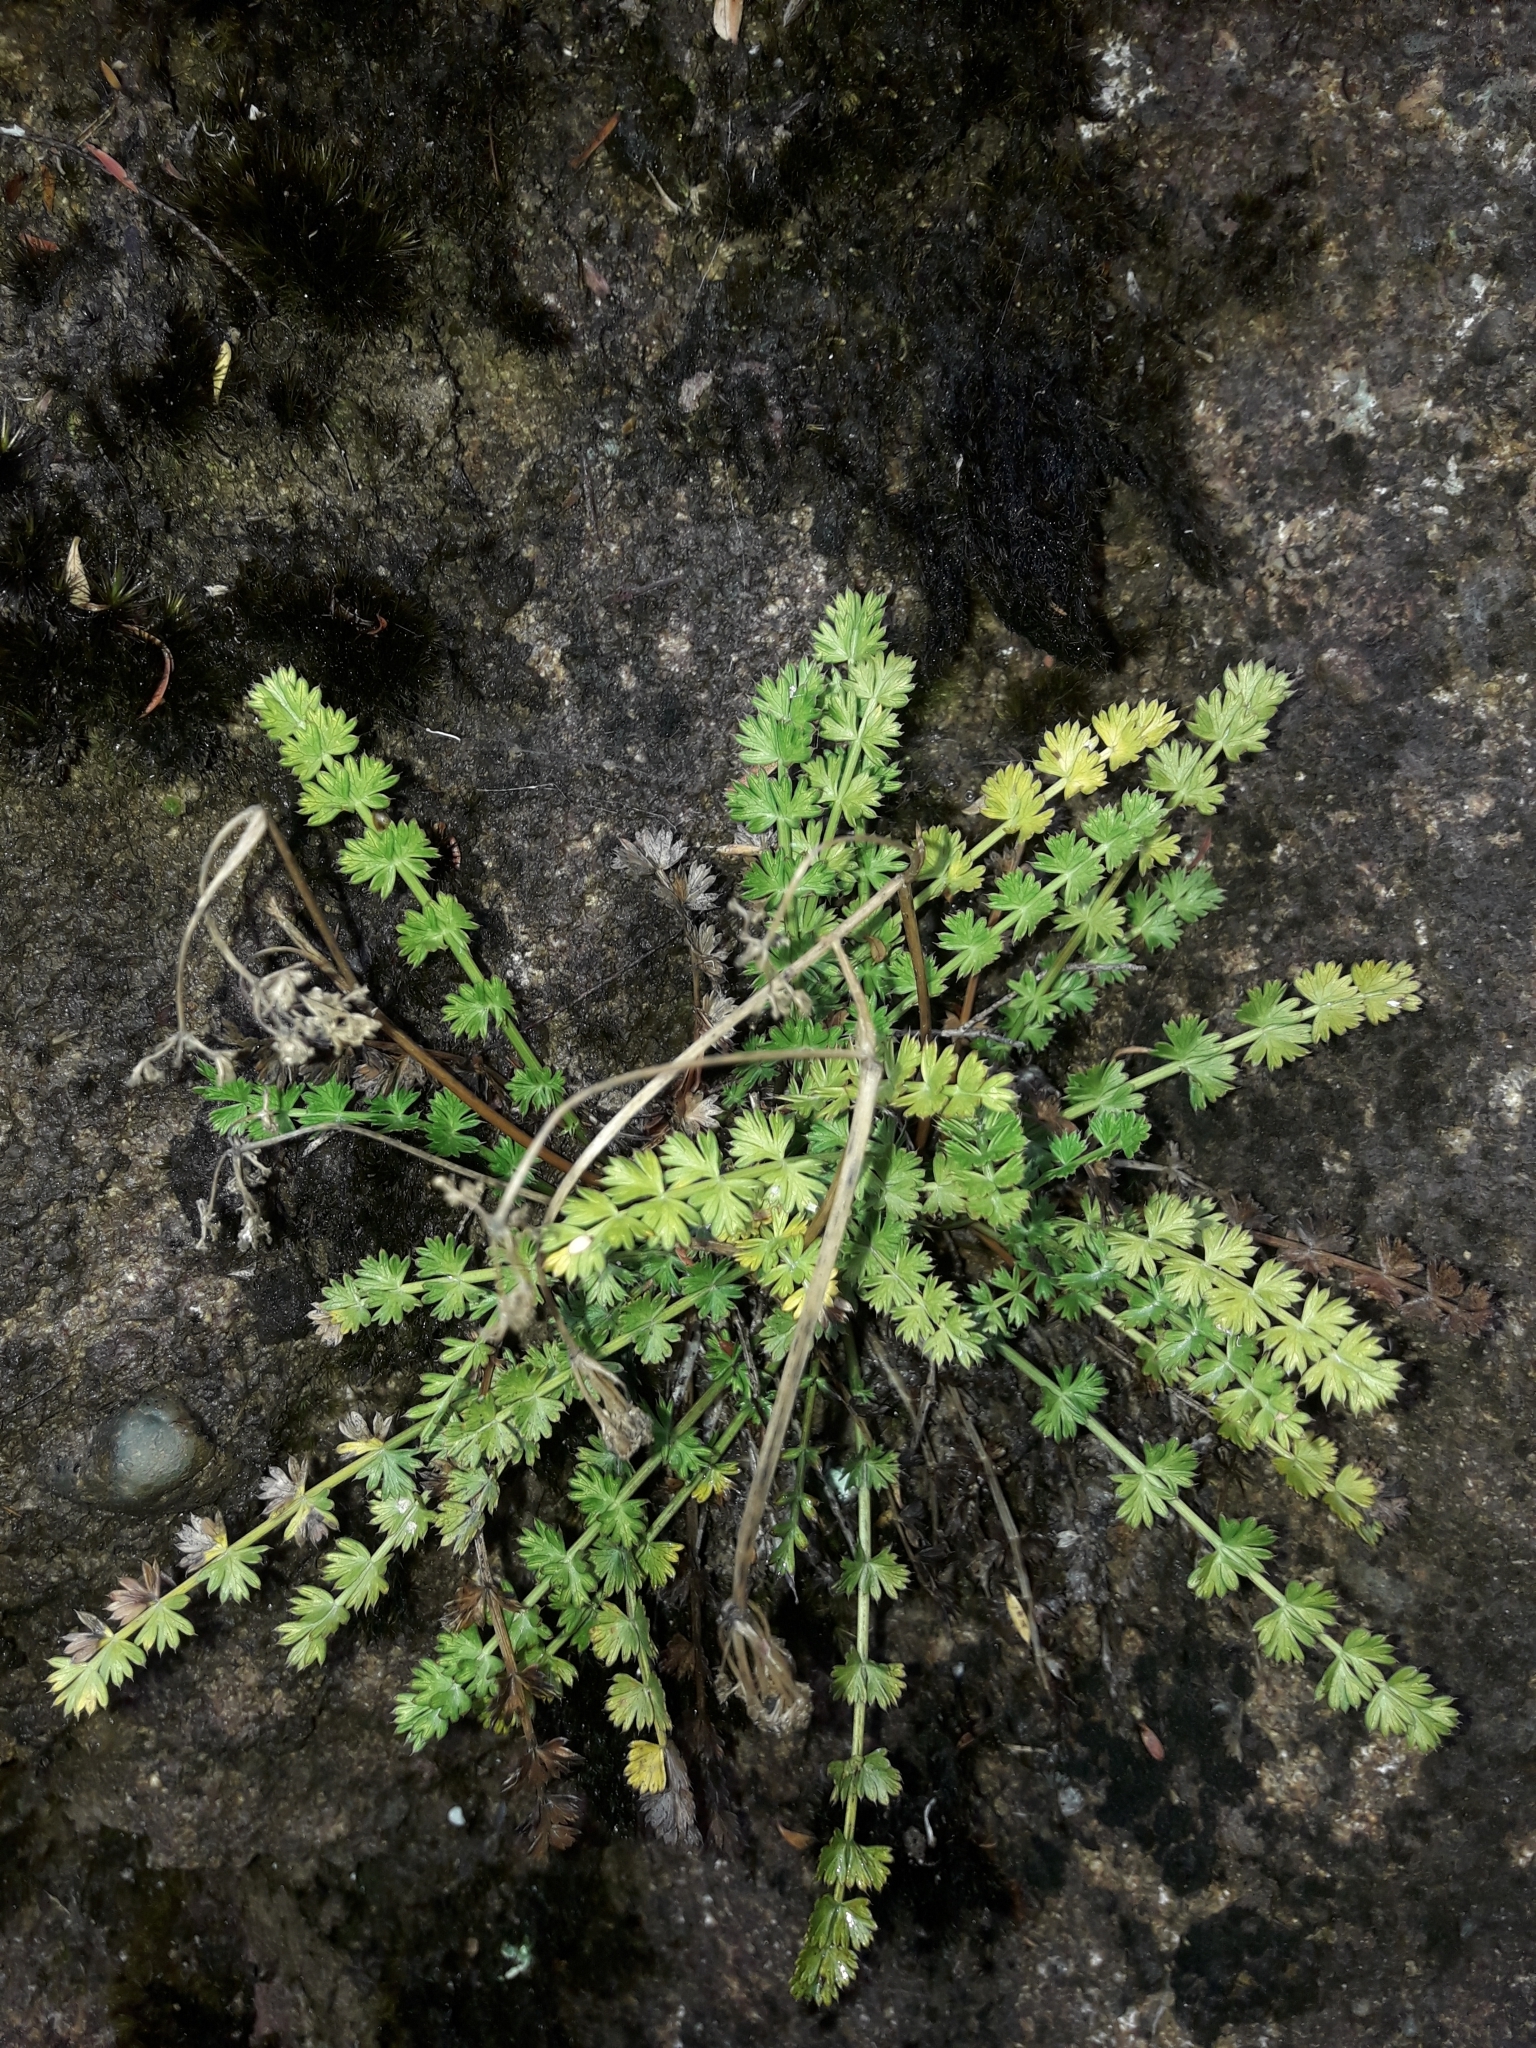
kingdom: Plantae
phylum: Tracheophyta
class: Magnoliopsida
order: Apiales
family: Apiaceae
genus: Anisotome
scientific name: Anisotome aromatica
